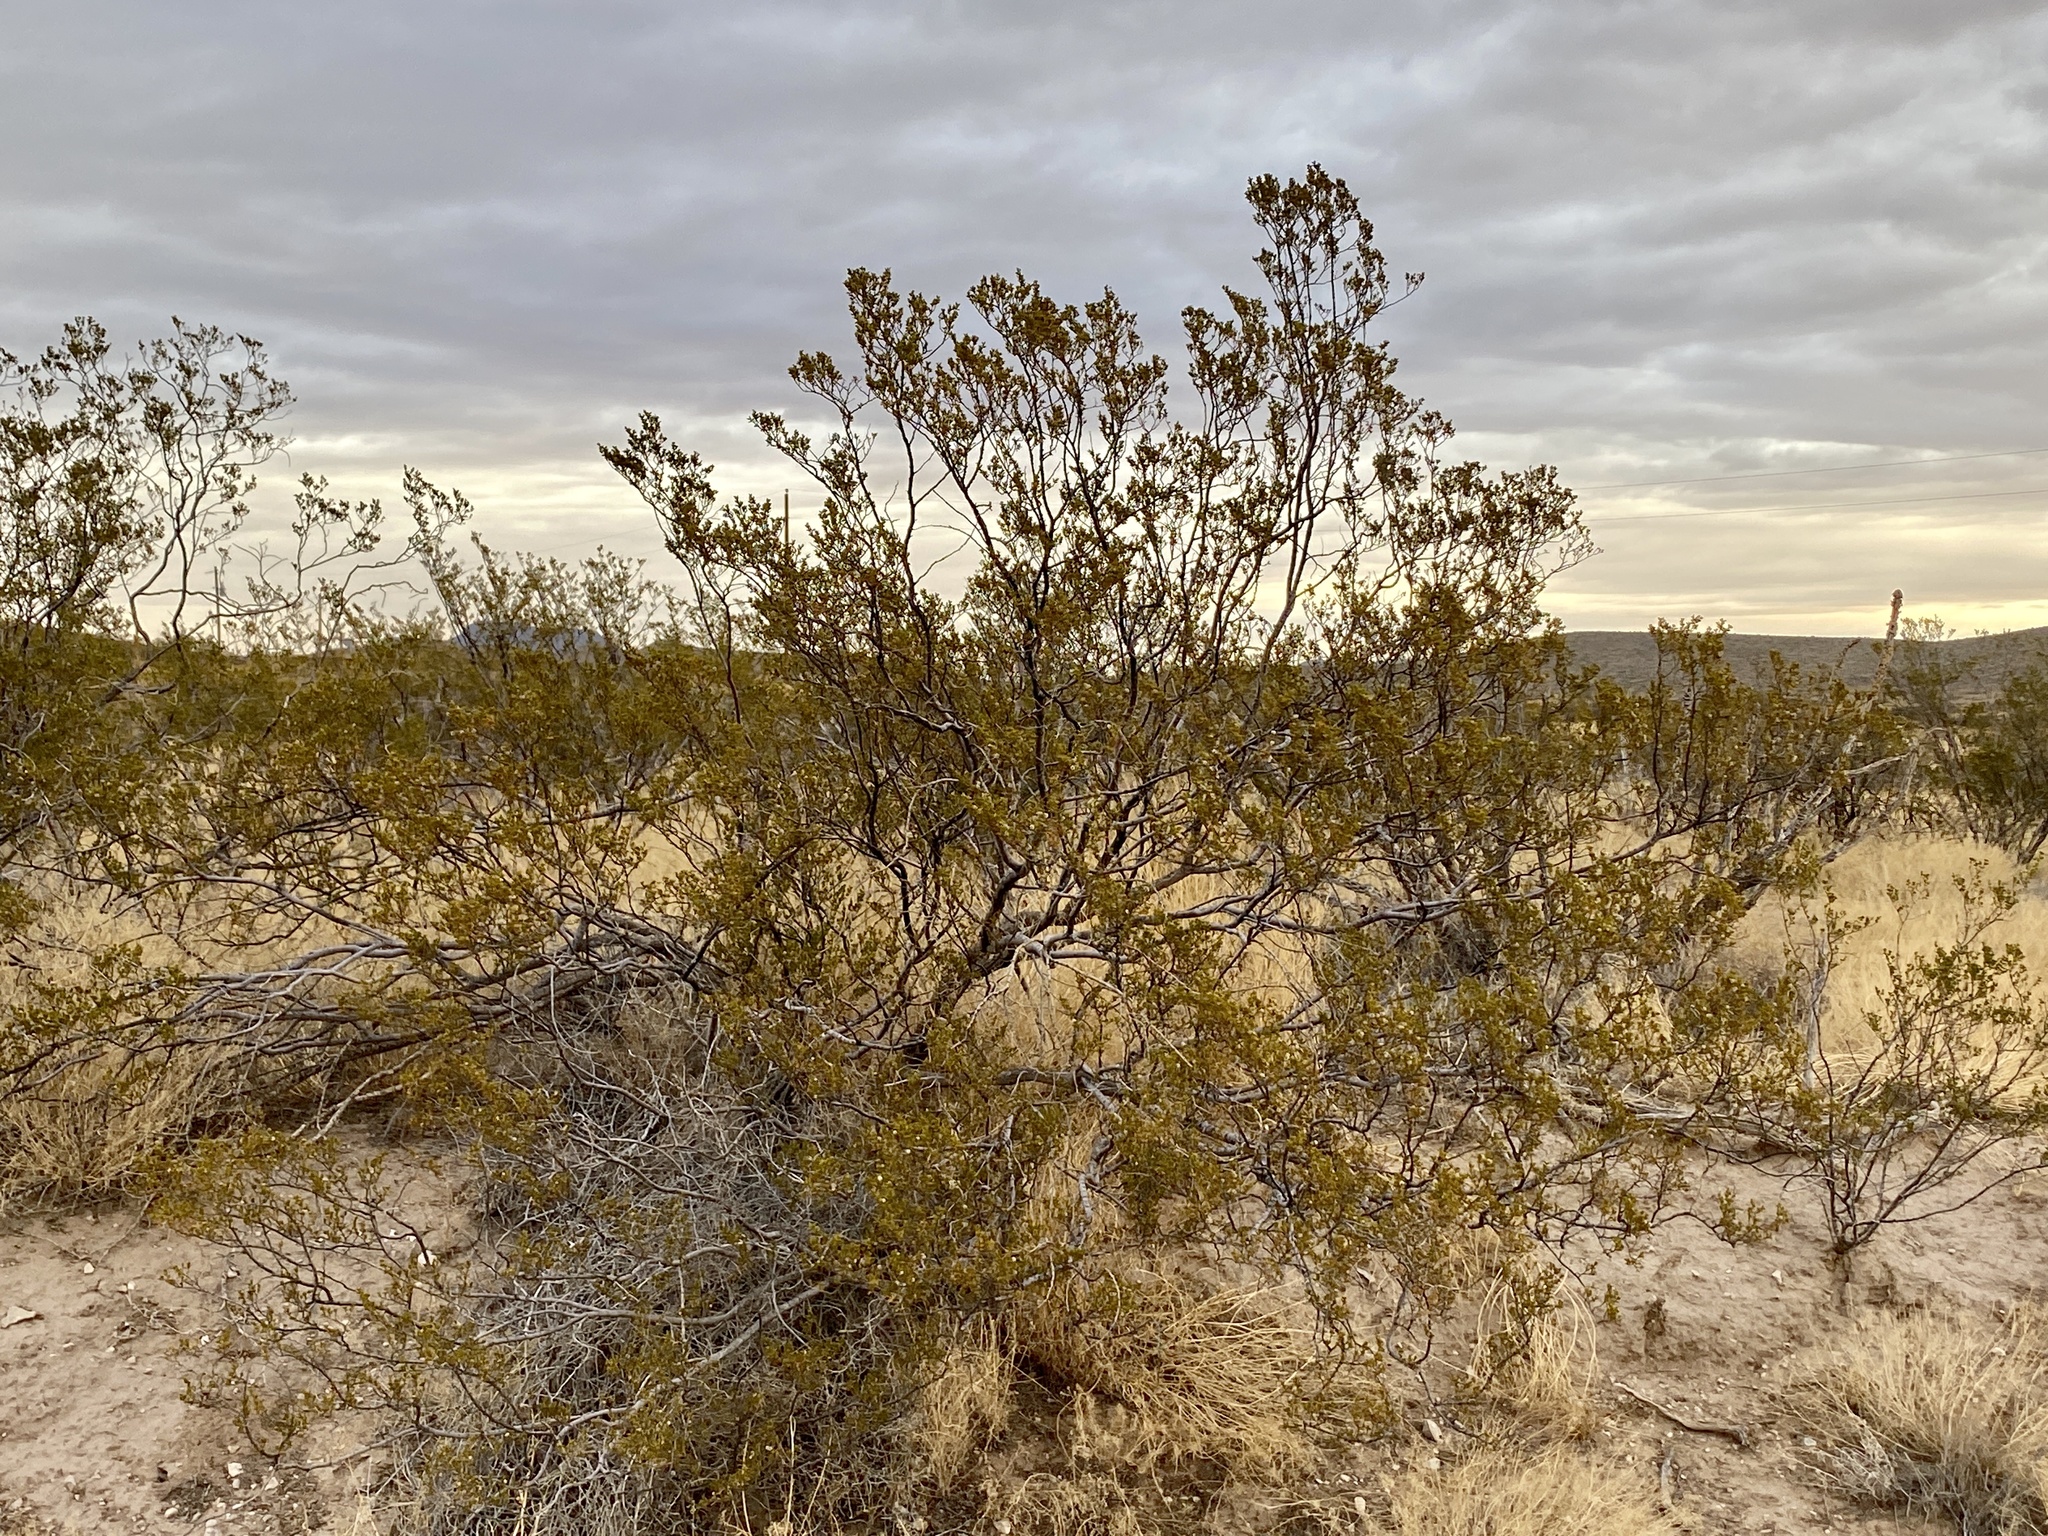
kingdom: Plantae
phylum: Tracheophyta
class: Magnoliopsida
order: Zygophyllales
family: Zygophyllaceae
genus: Larrea
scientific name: Larrea tridentata
